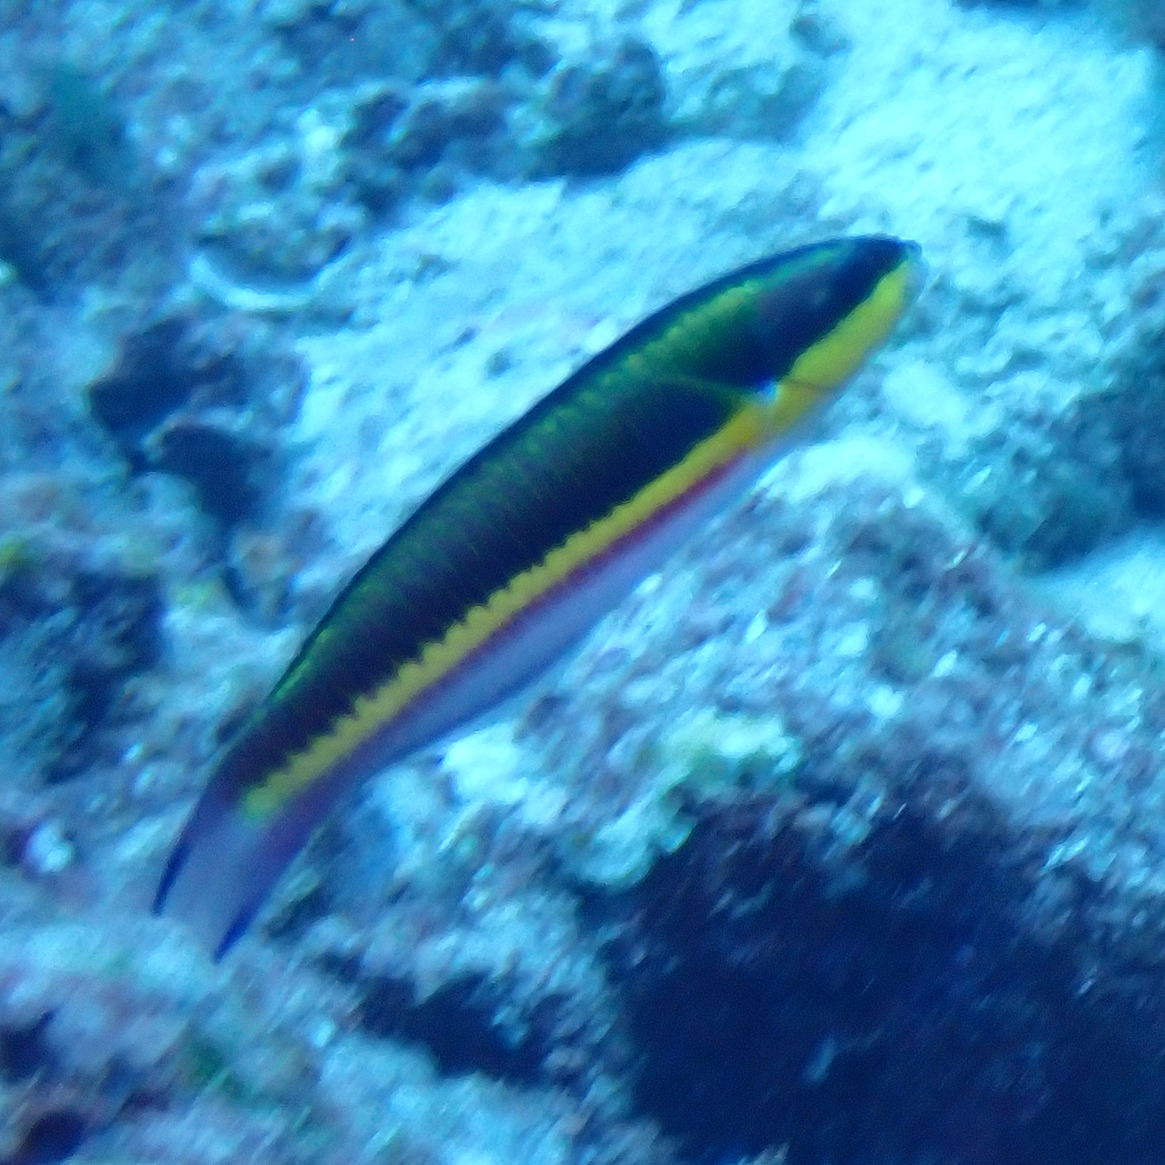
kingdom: Animalia
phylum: Chordata
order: Perciformes
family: Labridae
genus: Thalassoma
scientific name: Thalassoma lucasanum
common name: Cortez rainbow wrasse
